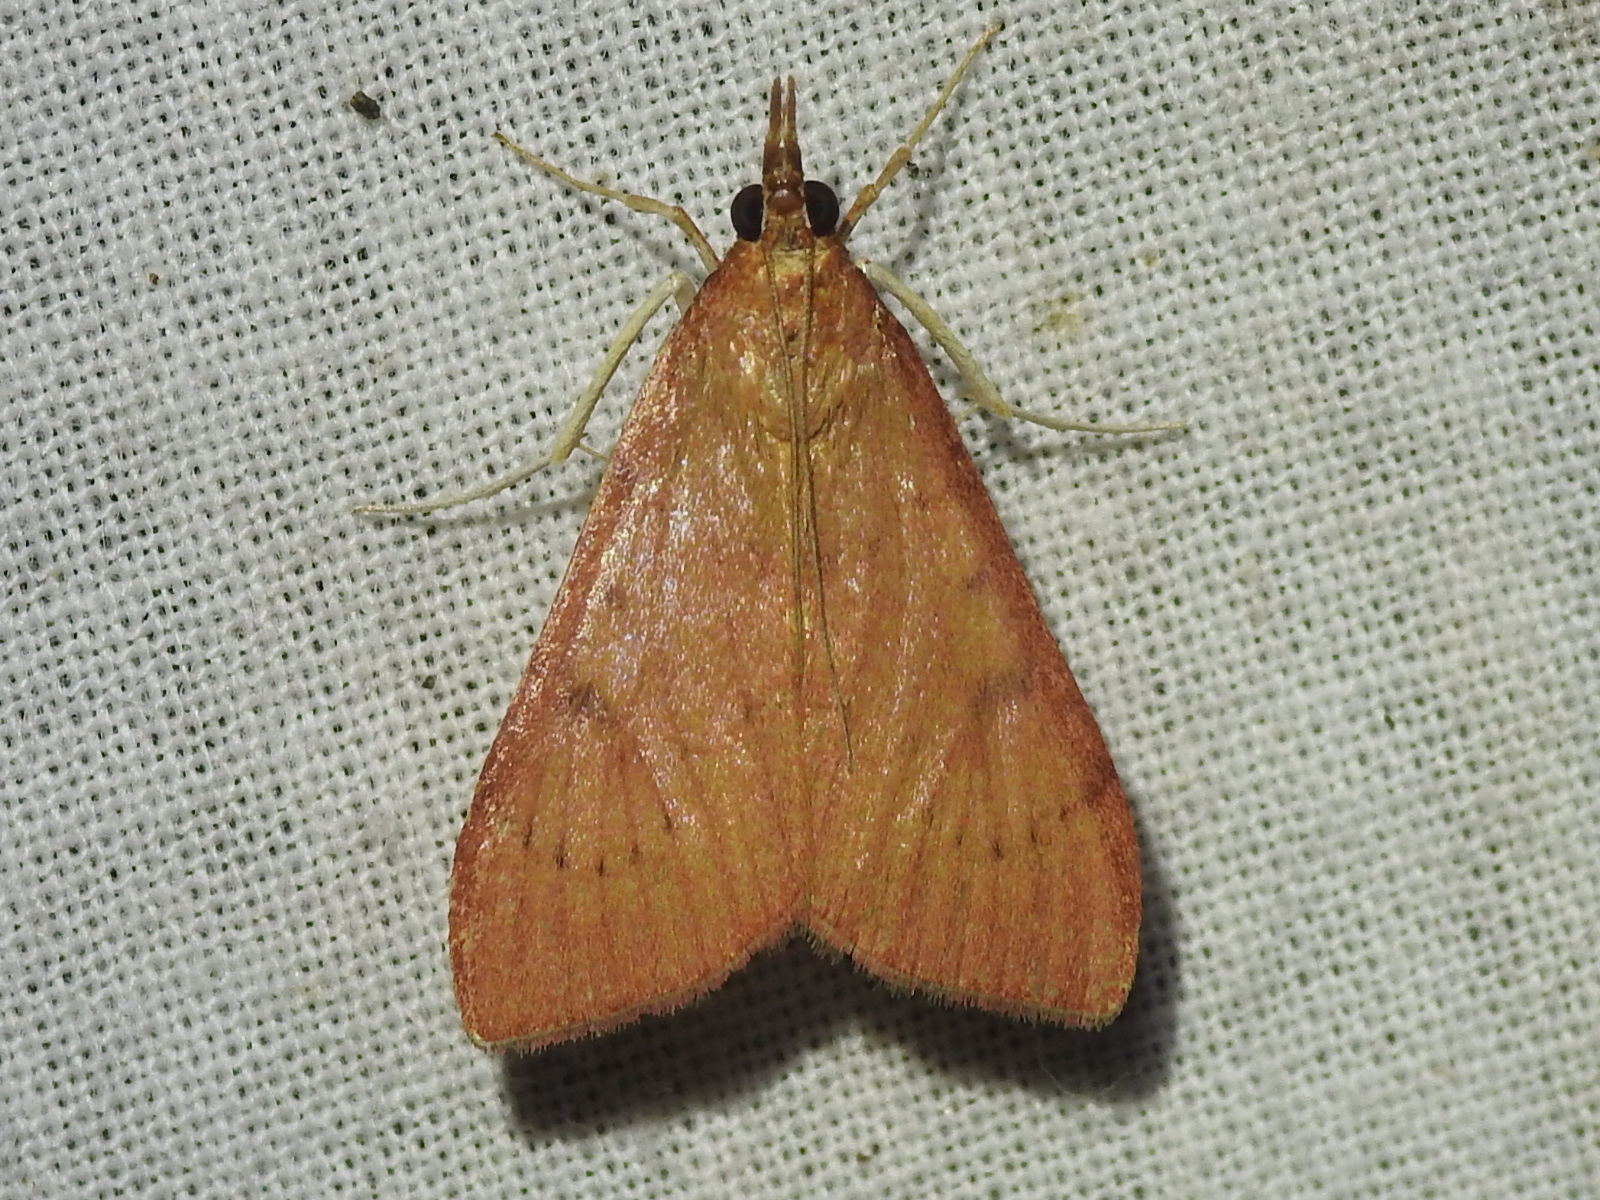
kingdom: Animalia
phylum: Arthropoda
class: Insecta
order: Lepidoptera
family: Crambidae
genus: Uresiphita
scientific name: Uresiphita reversalis
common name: Genista broom moth
